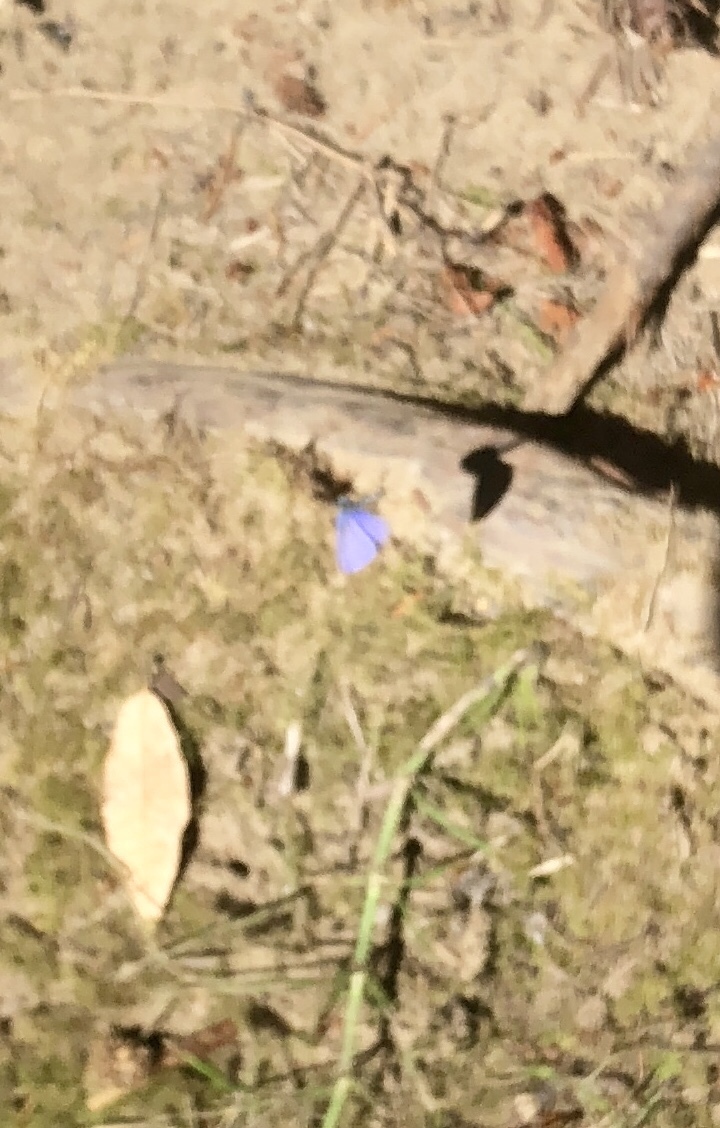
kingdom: Animalia
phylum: Arthropoda
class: Insecta
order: Lepidoptera
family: Lycaenidae
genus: Celastrina
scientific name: Celastrina ladon
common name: Spring azure
